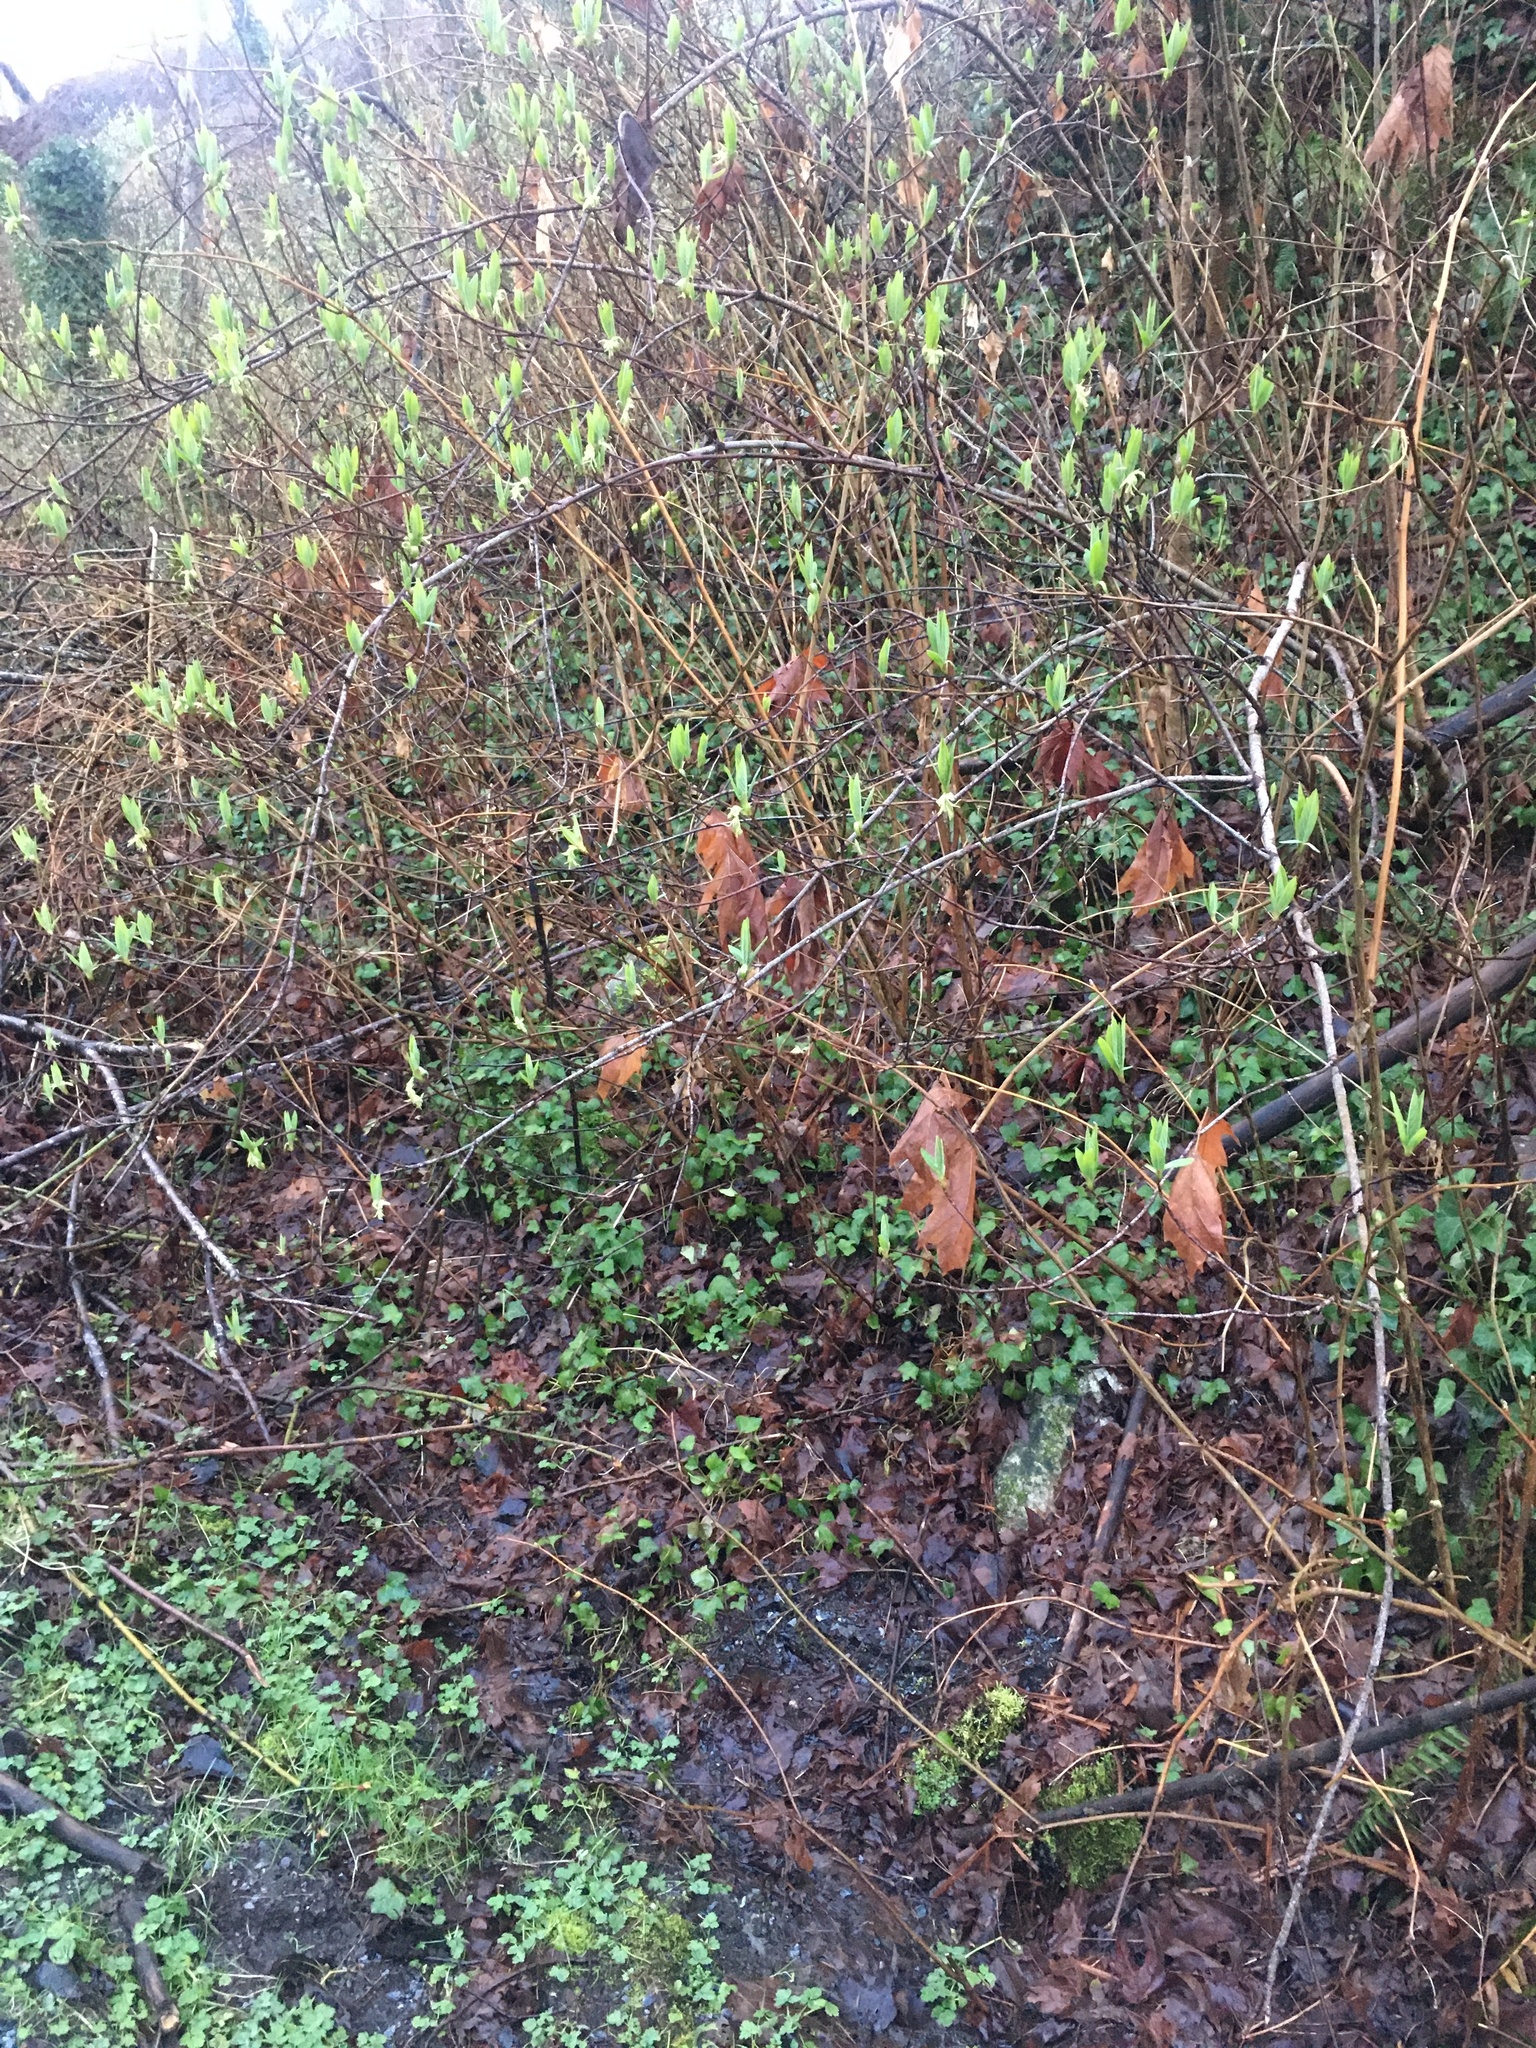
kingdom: Plantae
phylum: Tracheophyta
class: Magnoliopsida
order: Rosales
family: Rosaceae
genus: Oemleria
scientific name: Oemleria cerasiformis
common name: Osoberry
